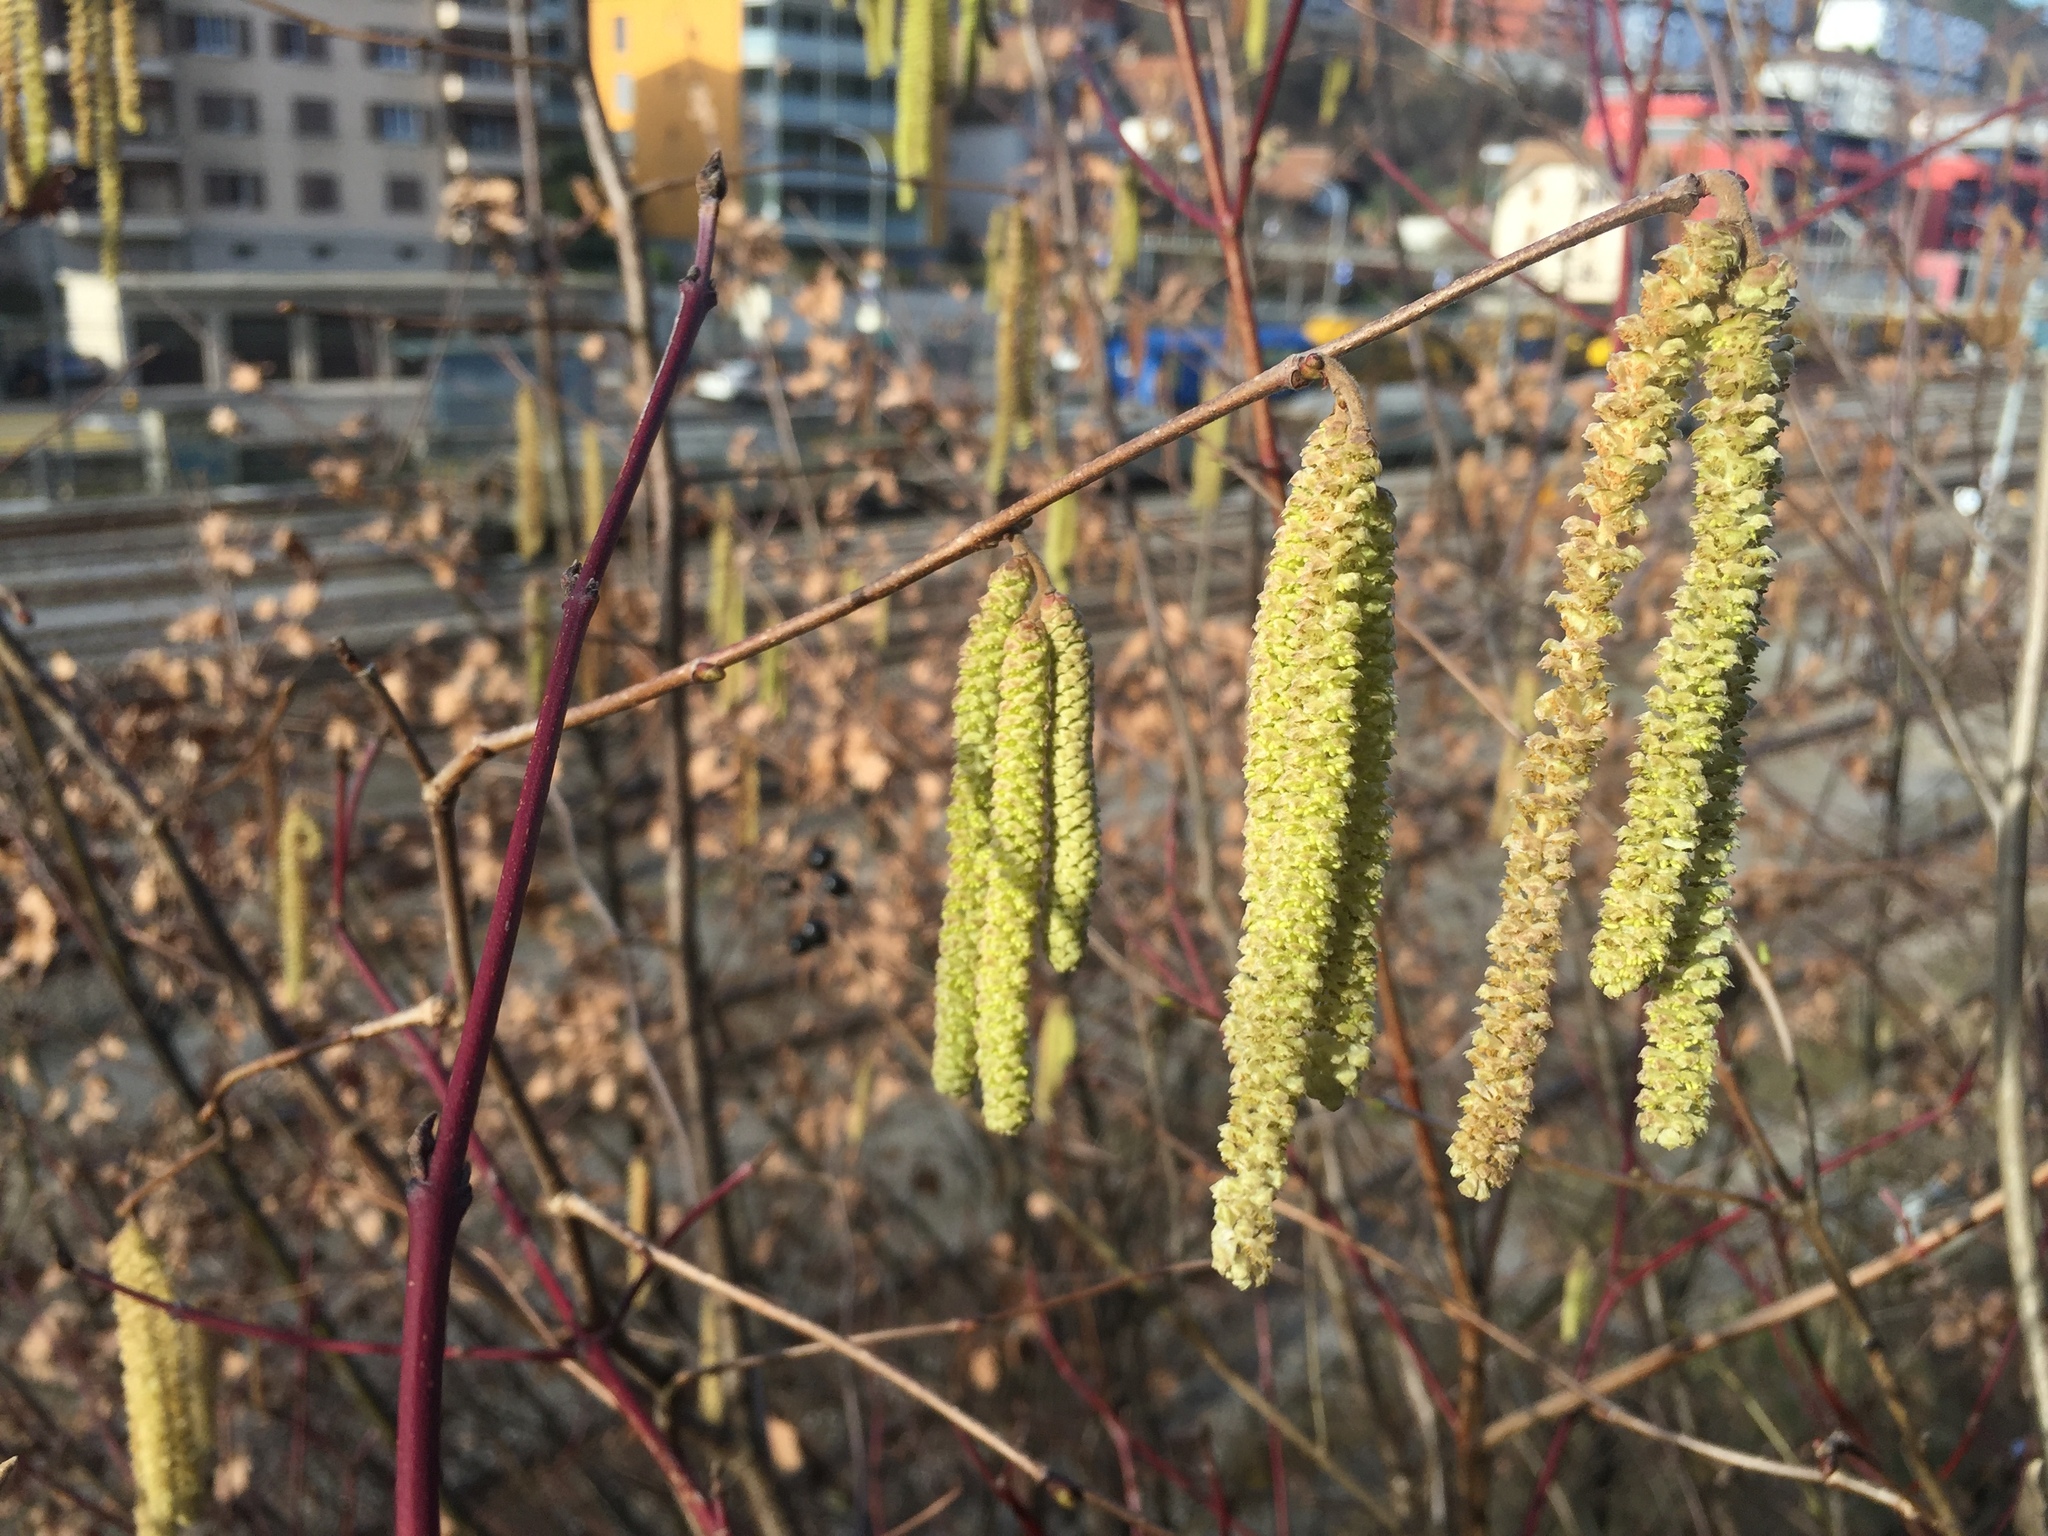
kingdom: Plantae
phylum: Tracheophyta
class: Magnoliopsida
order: Fagales
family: Betulaceae
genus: Corylus
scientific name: Corylus avellana
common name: European hazel
